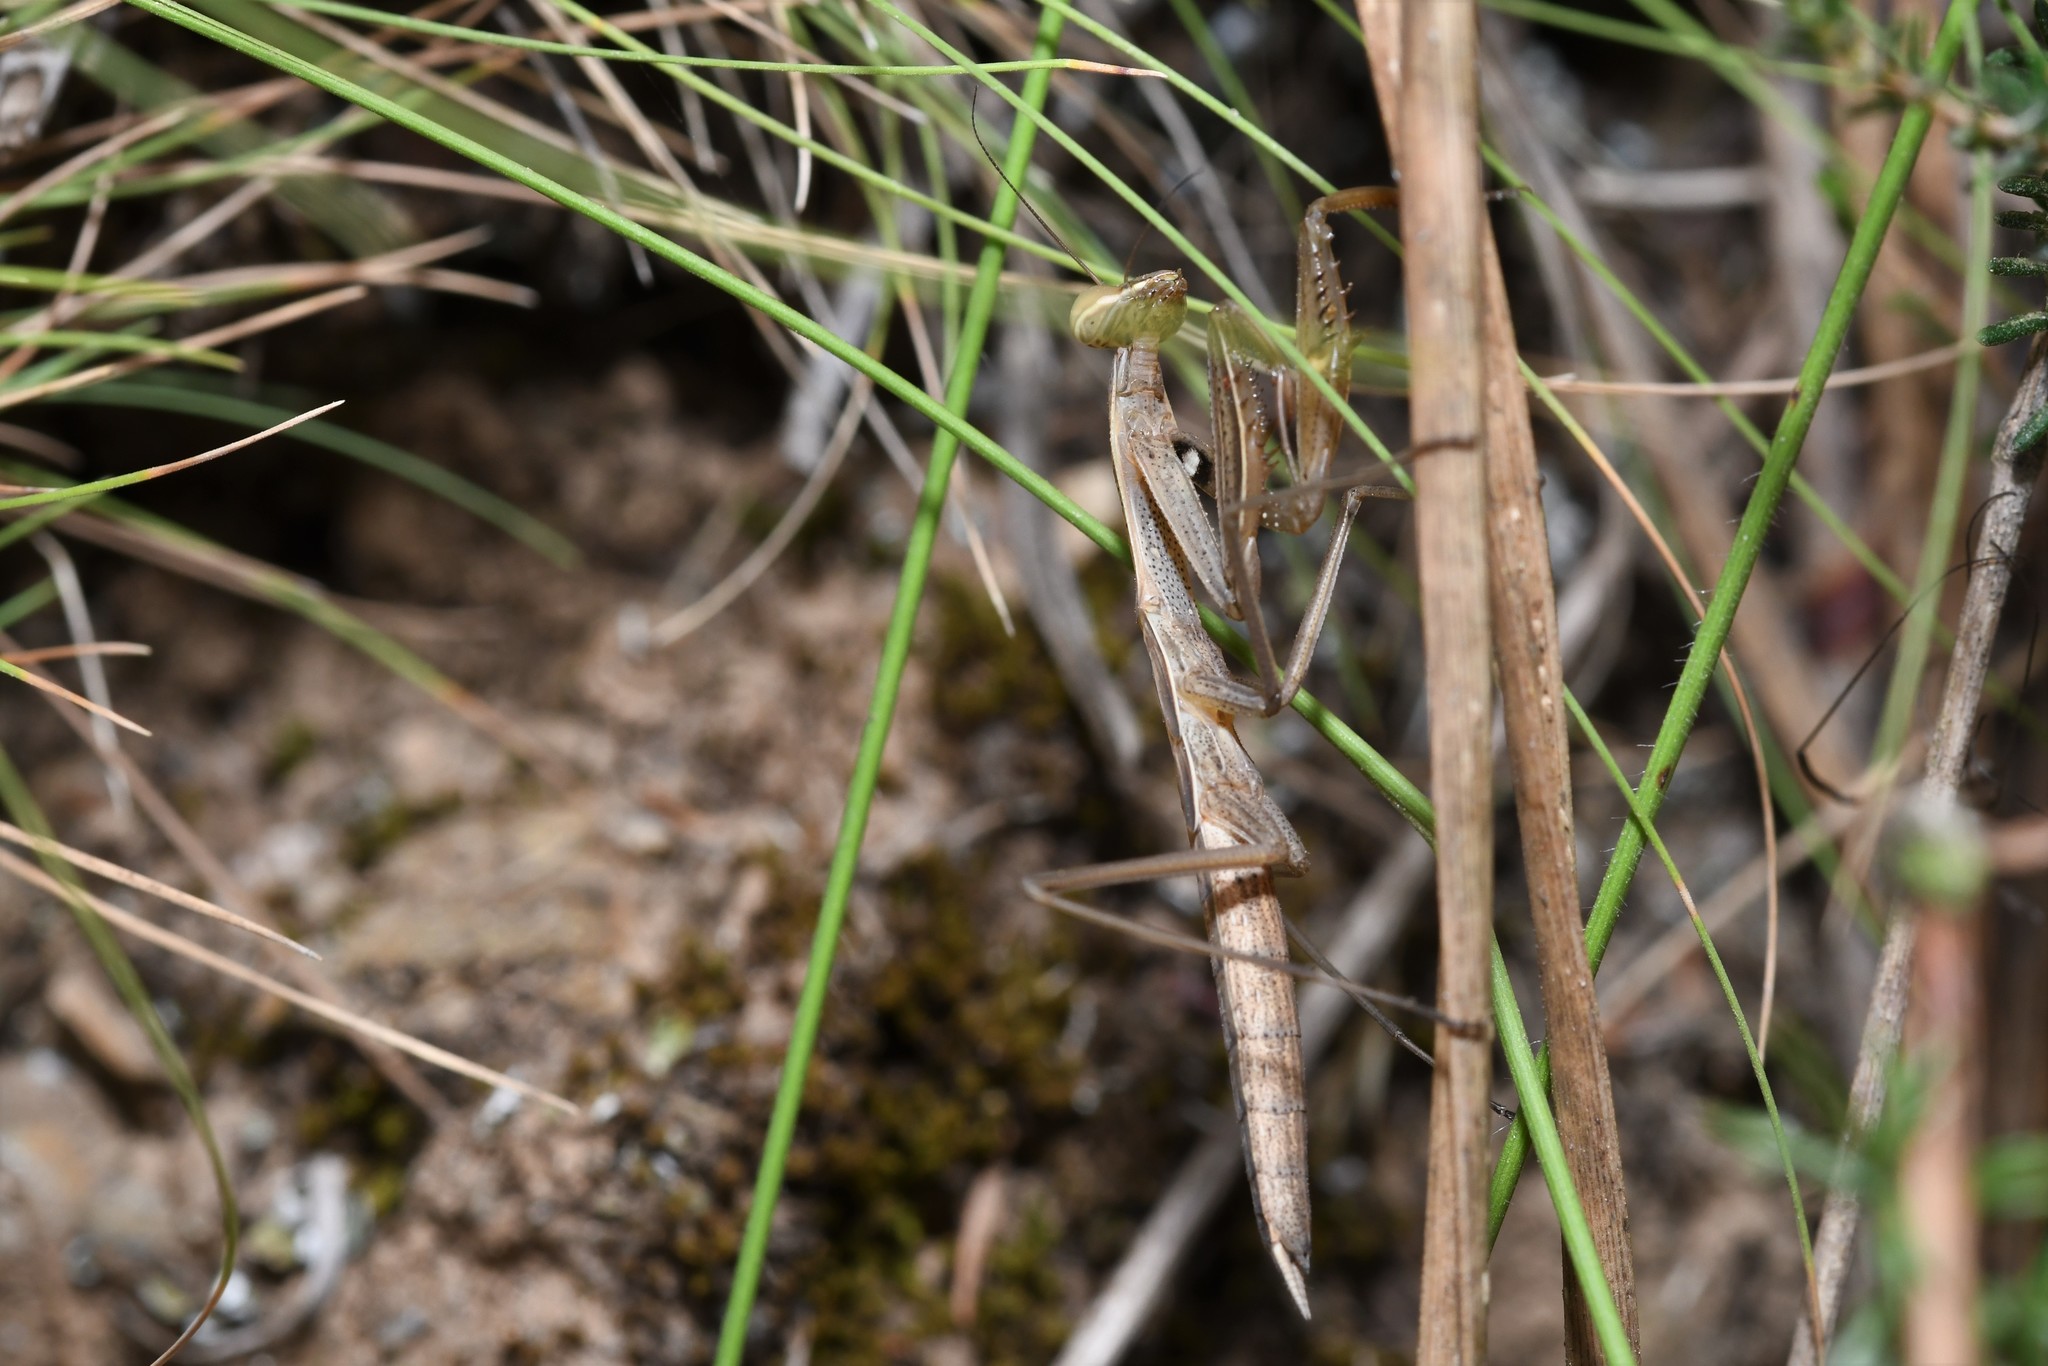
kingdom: Animalia
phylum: Arthropoda
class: Insecta
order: Mantodea
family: Mantidae
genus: Mantis
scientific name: Mantis religiosa
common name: Praying mantis
